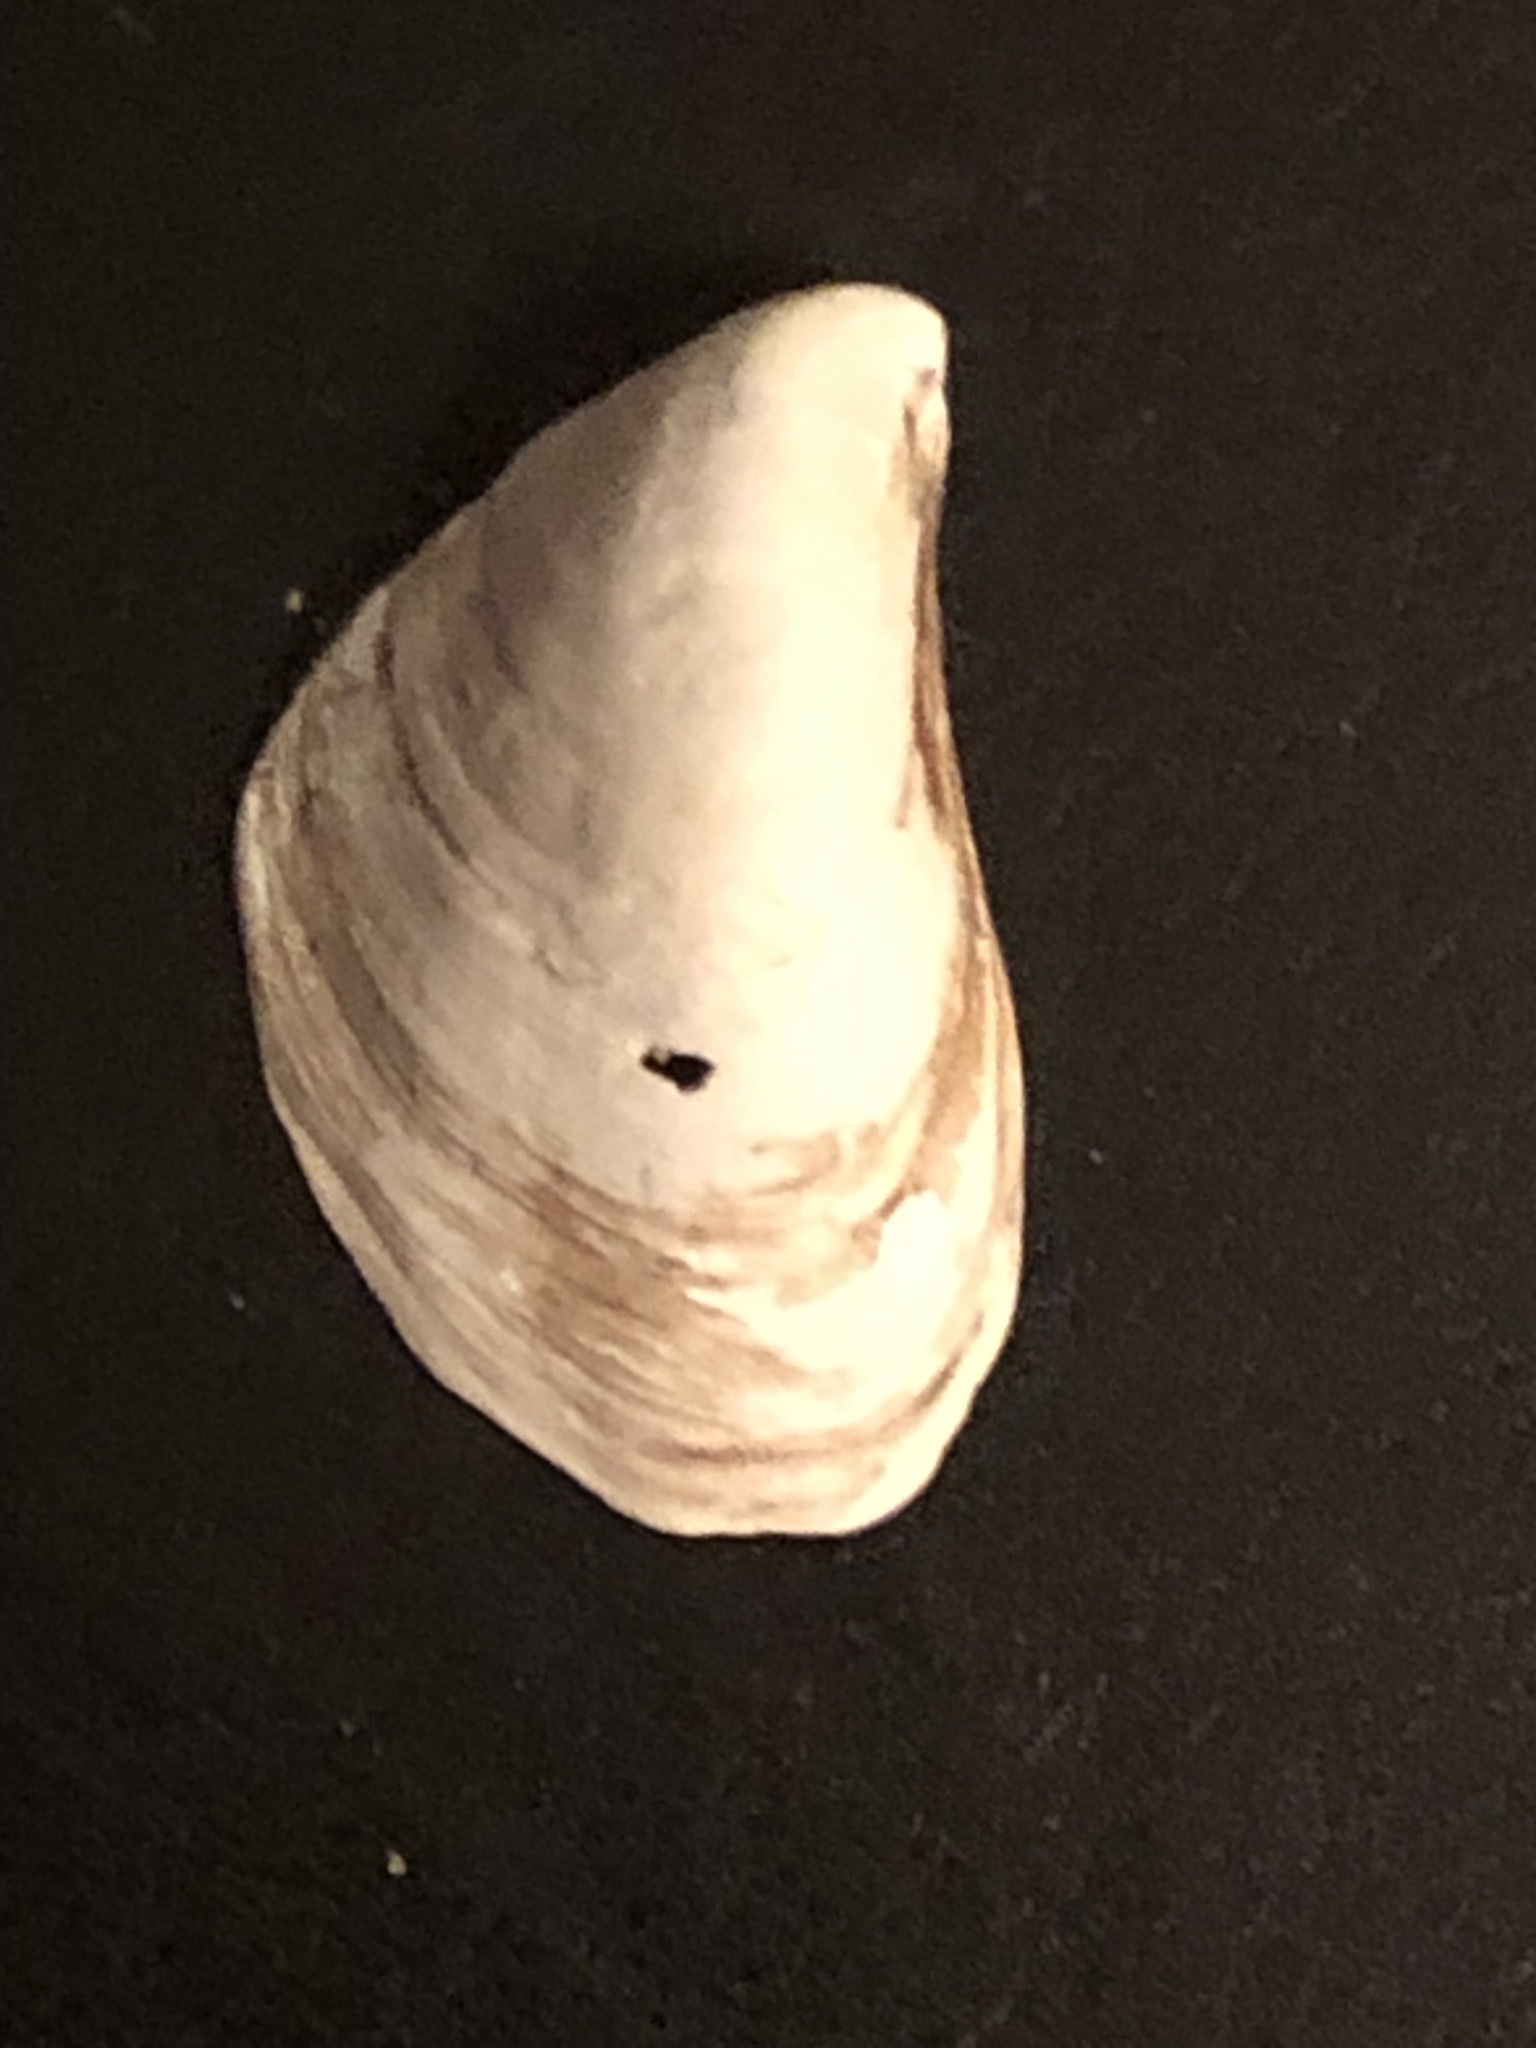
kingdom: Animalia
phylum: Mollusca
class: Bivalvia
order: Myida
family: Dreissenidae
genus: Dreissena
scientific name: Dreissena bugensis
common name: Quagga mussel
